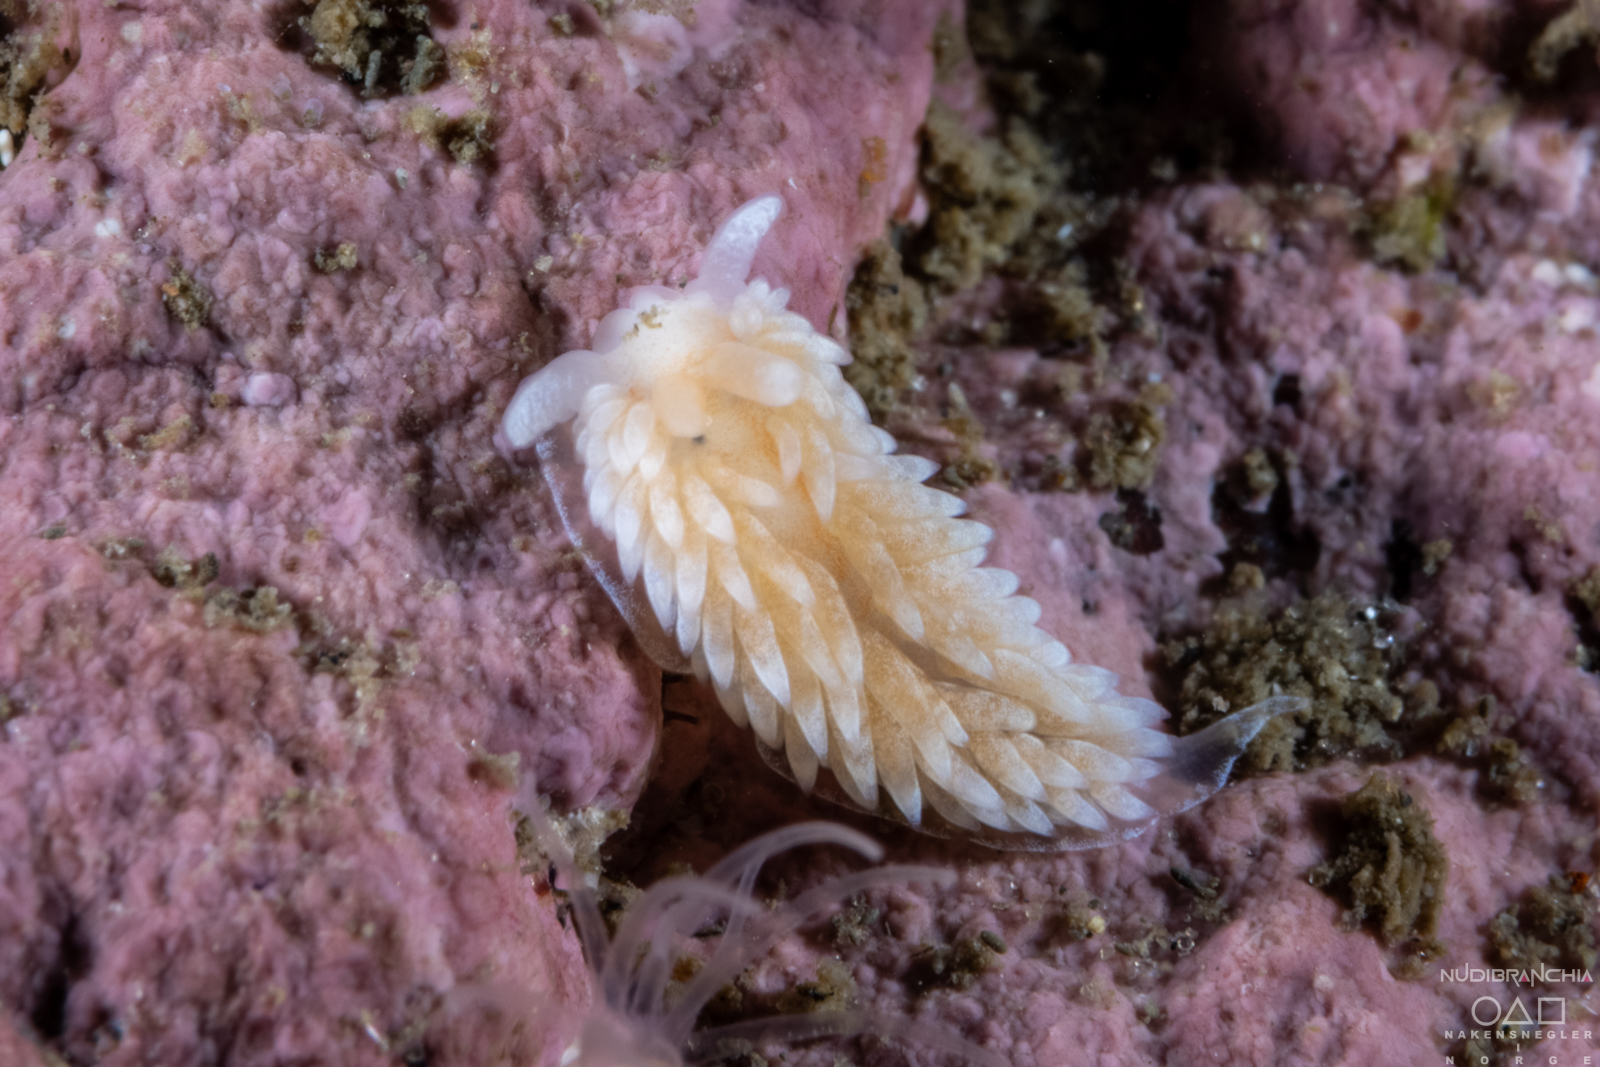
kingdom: Animalia
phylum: Mollusca
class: Gastropoda
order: Nudibranchia
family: Aeolidiidae
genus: Aeolidiella
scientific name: Aeolidiella glauca
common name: Orange-brown aeolid
